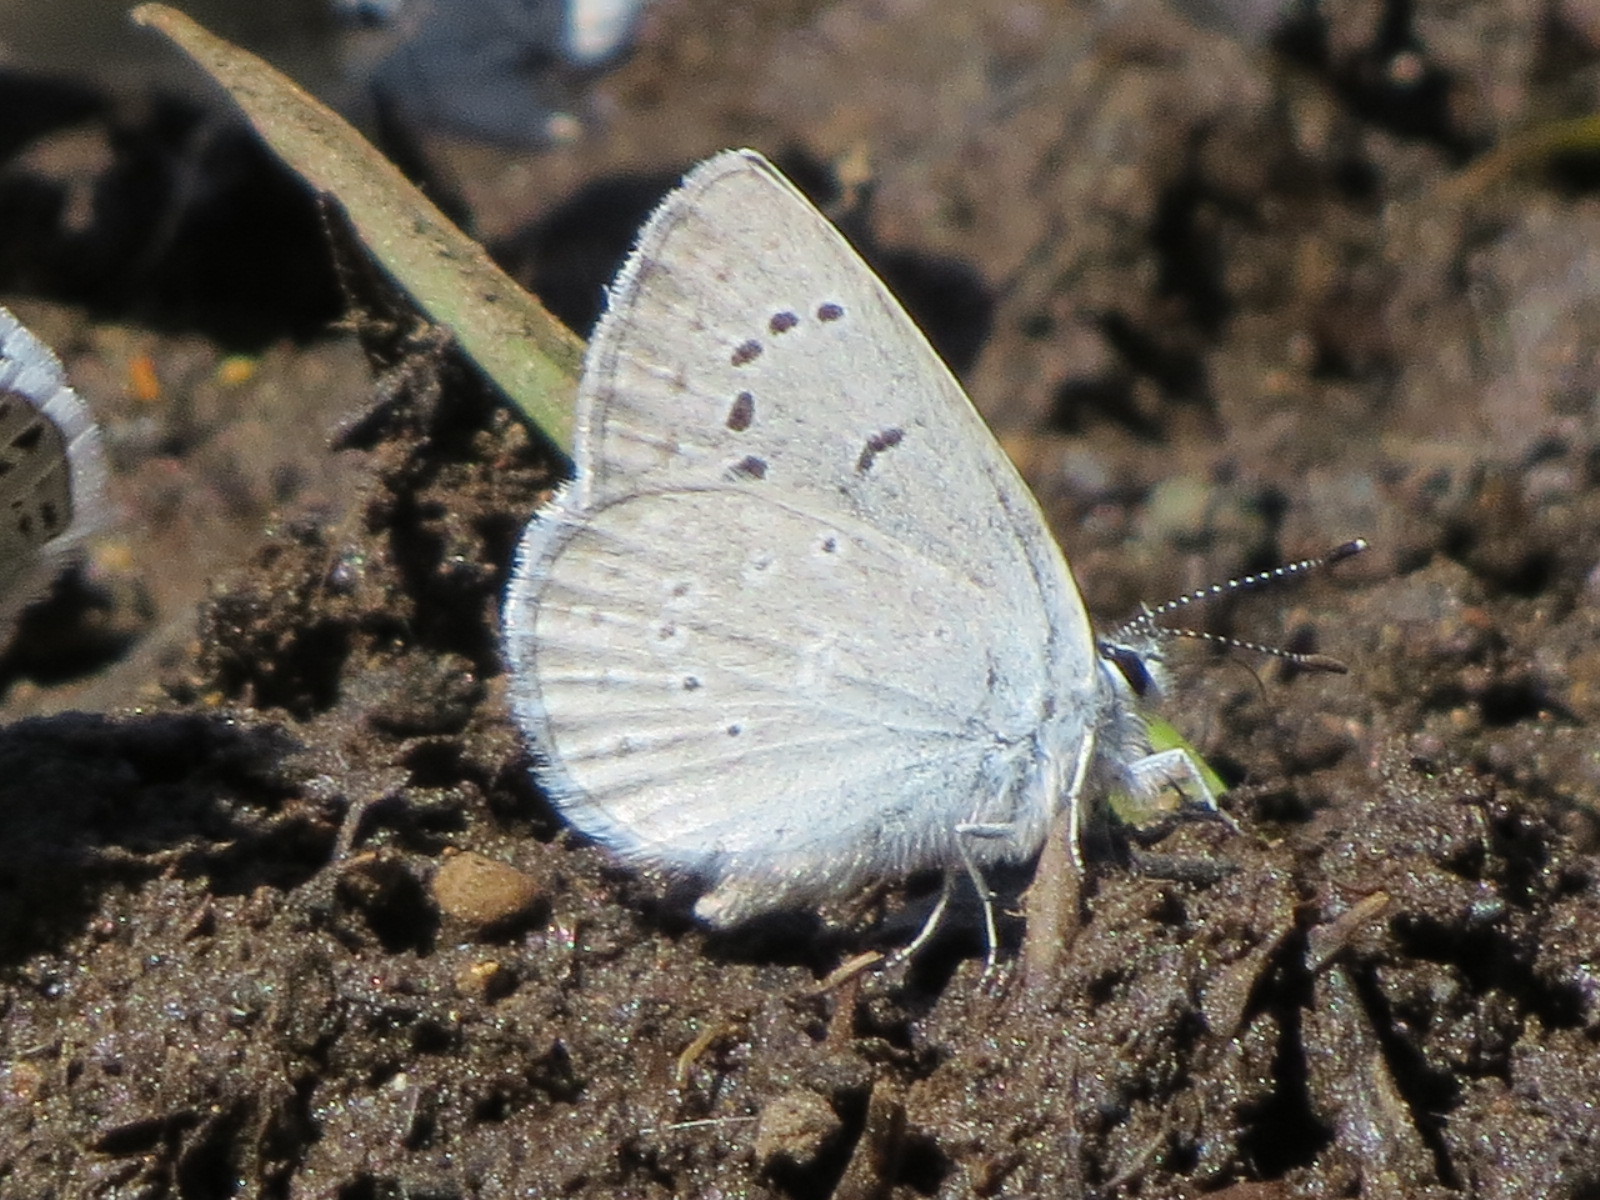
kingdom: Animalia
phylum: Arthropoda
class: Insecta
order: Lepidoptera
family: Lycaenidae
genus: Icaricia
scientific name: Icaricia icarioides
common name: Boisduval's blue
